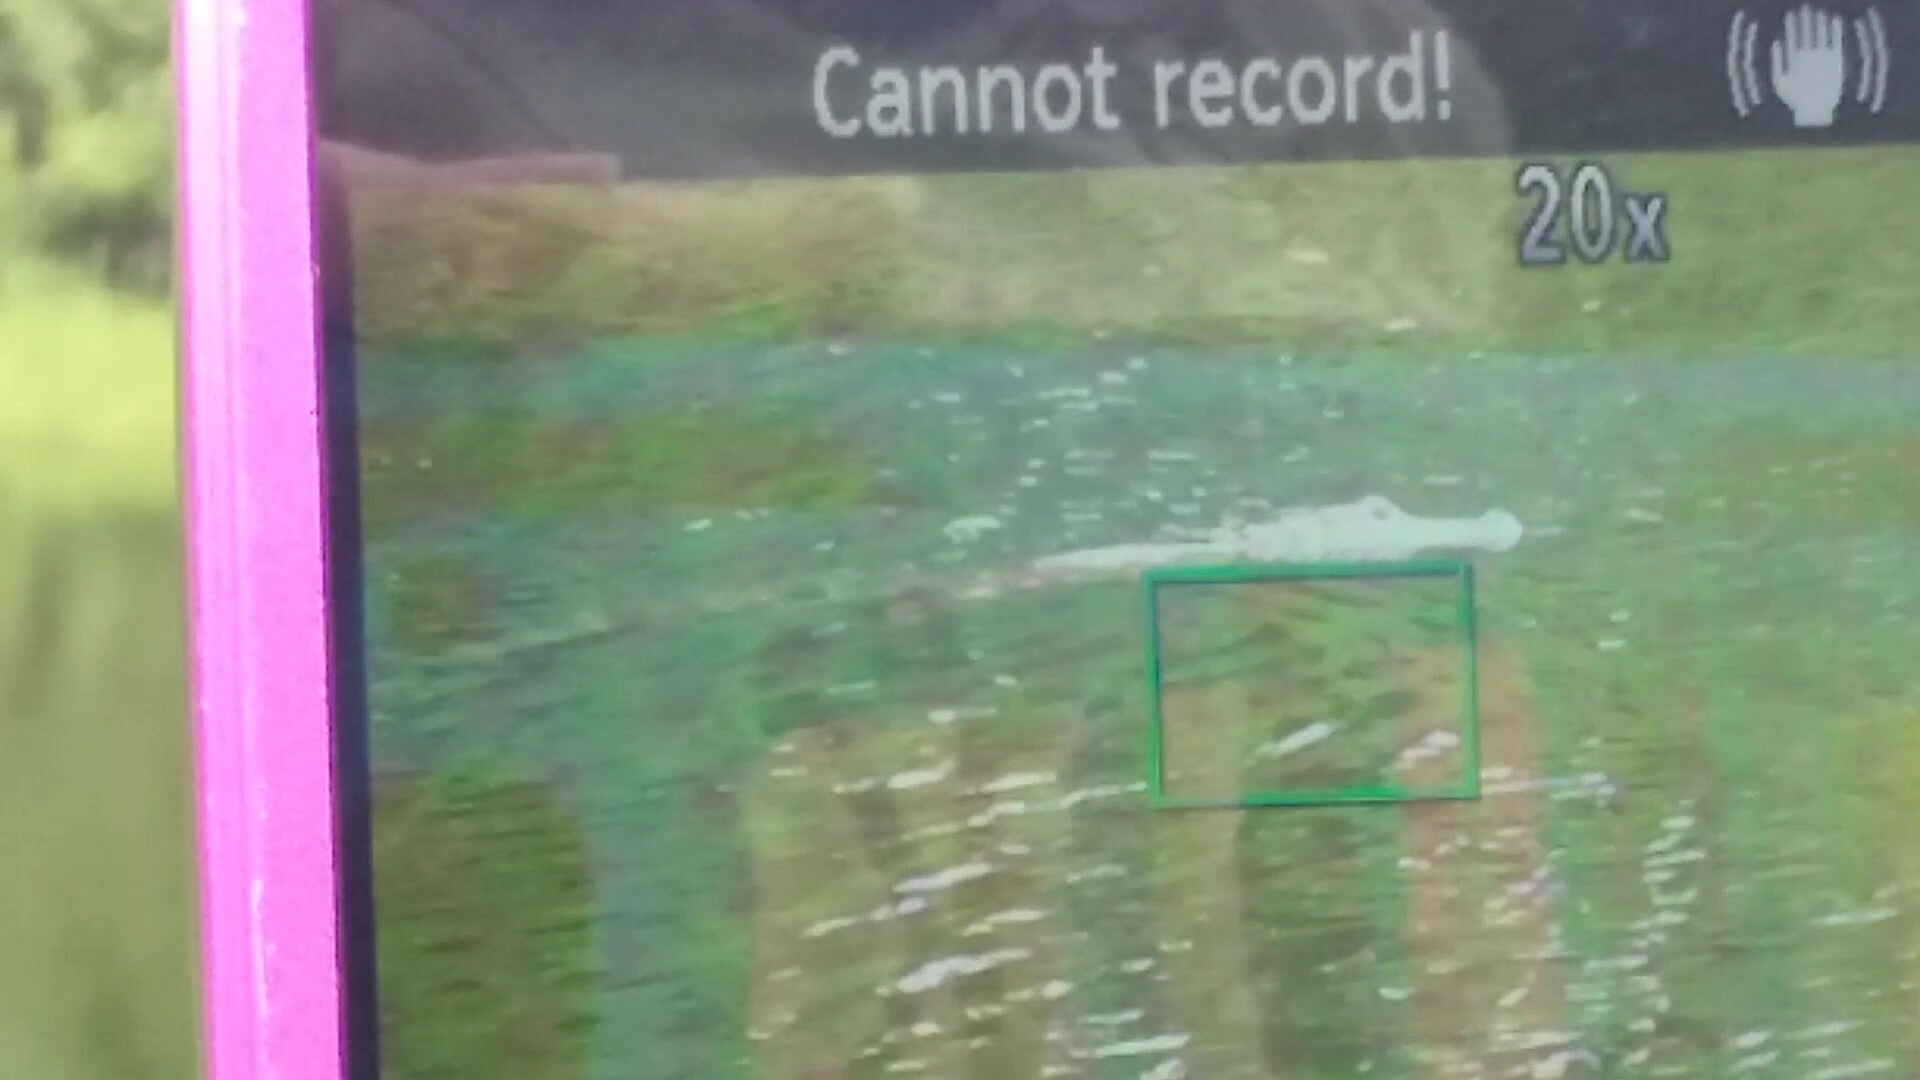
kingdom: Animalia
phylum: Chordata
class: Crocodylia
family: Alligatoridae
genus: Alligator
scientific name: Alligator mississippiensis
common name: American alligator
